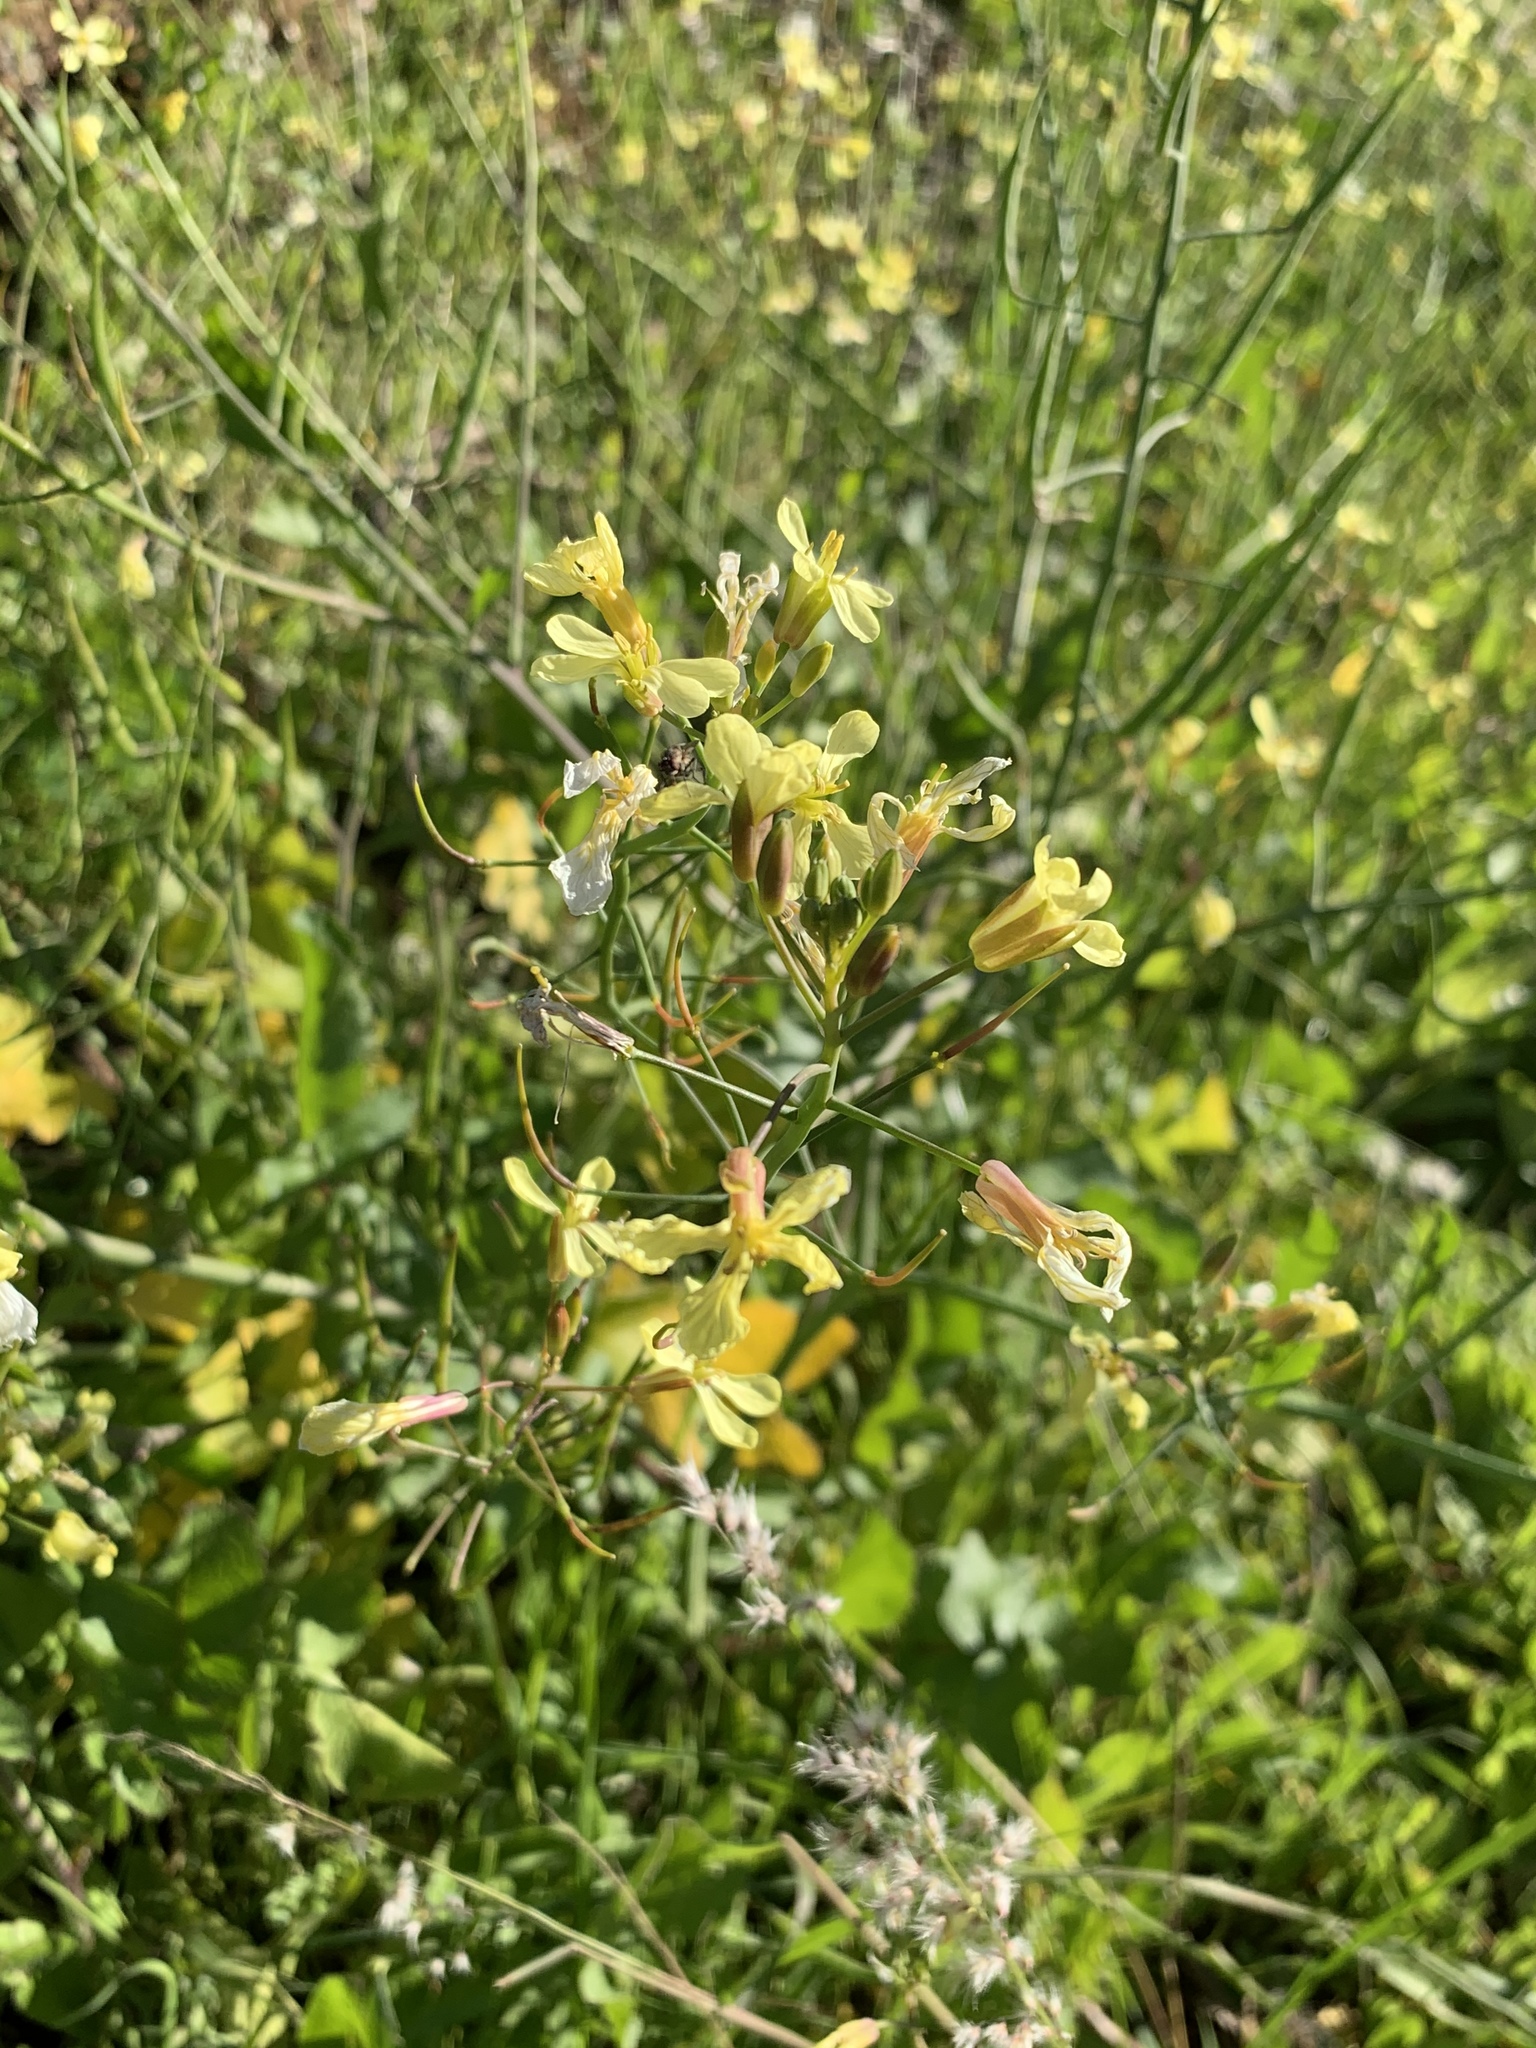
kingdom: Plantae
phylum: Tracheophyta
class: Magnoliopsida
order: Brassicales
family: Brassicaceae
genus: Raphanus
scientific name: Raphanus raphanistrum
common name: Wild radish
